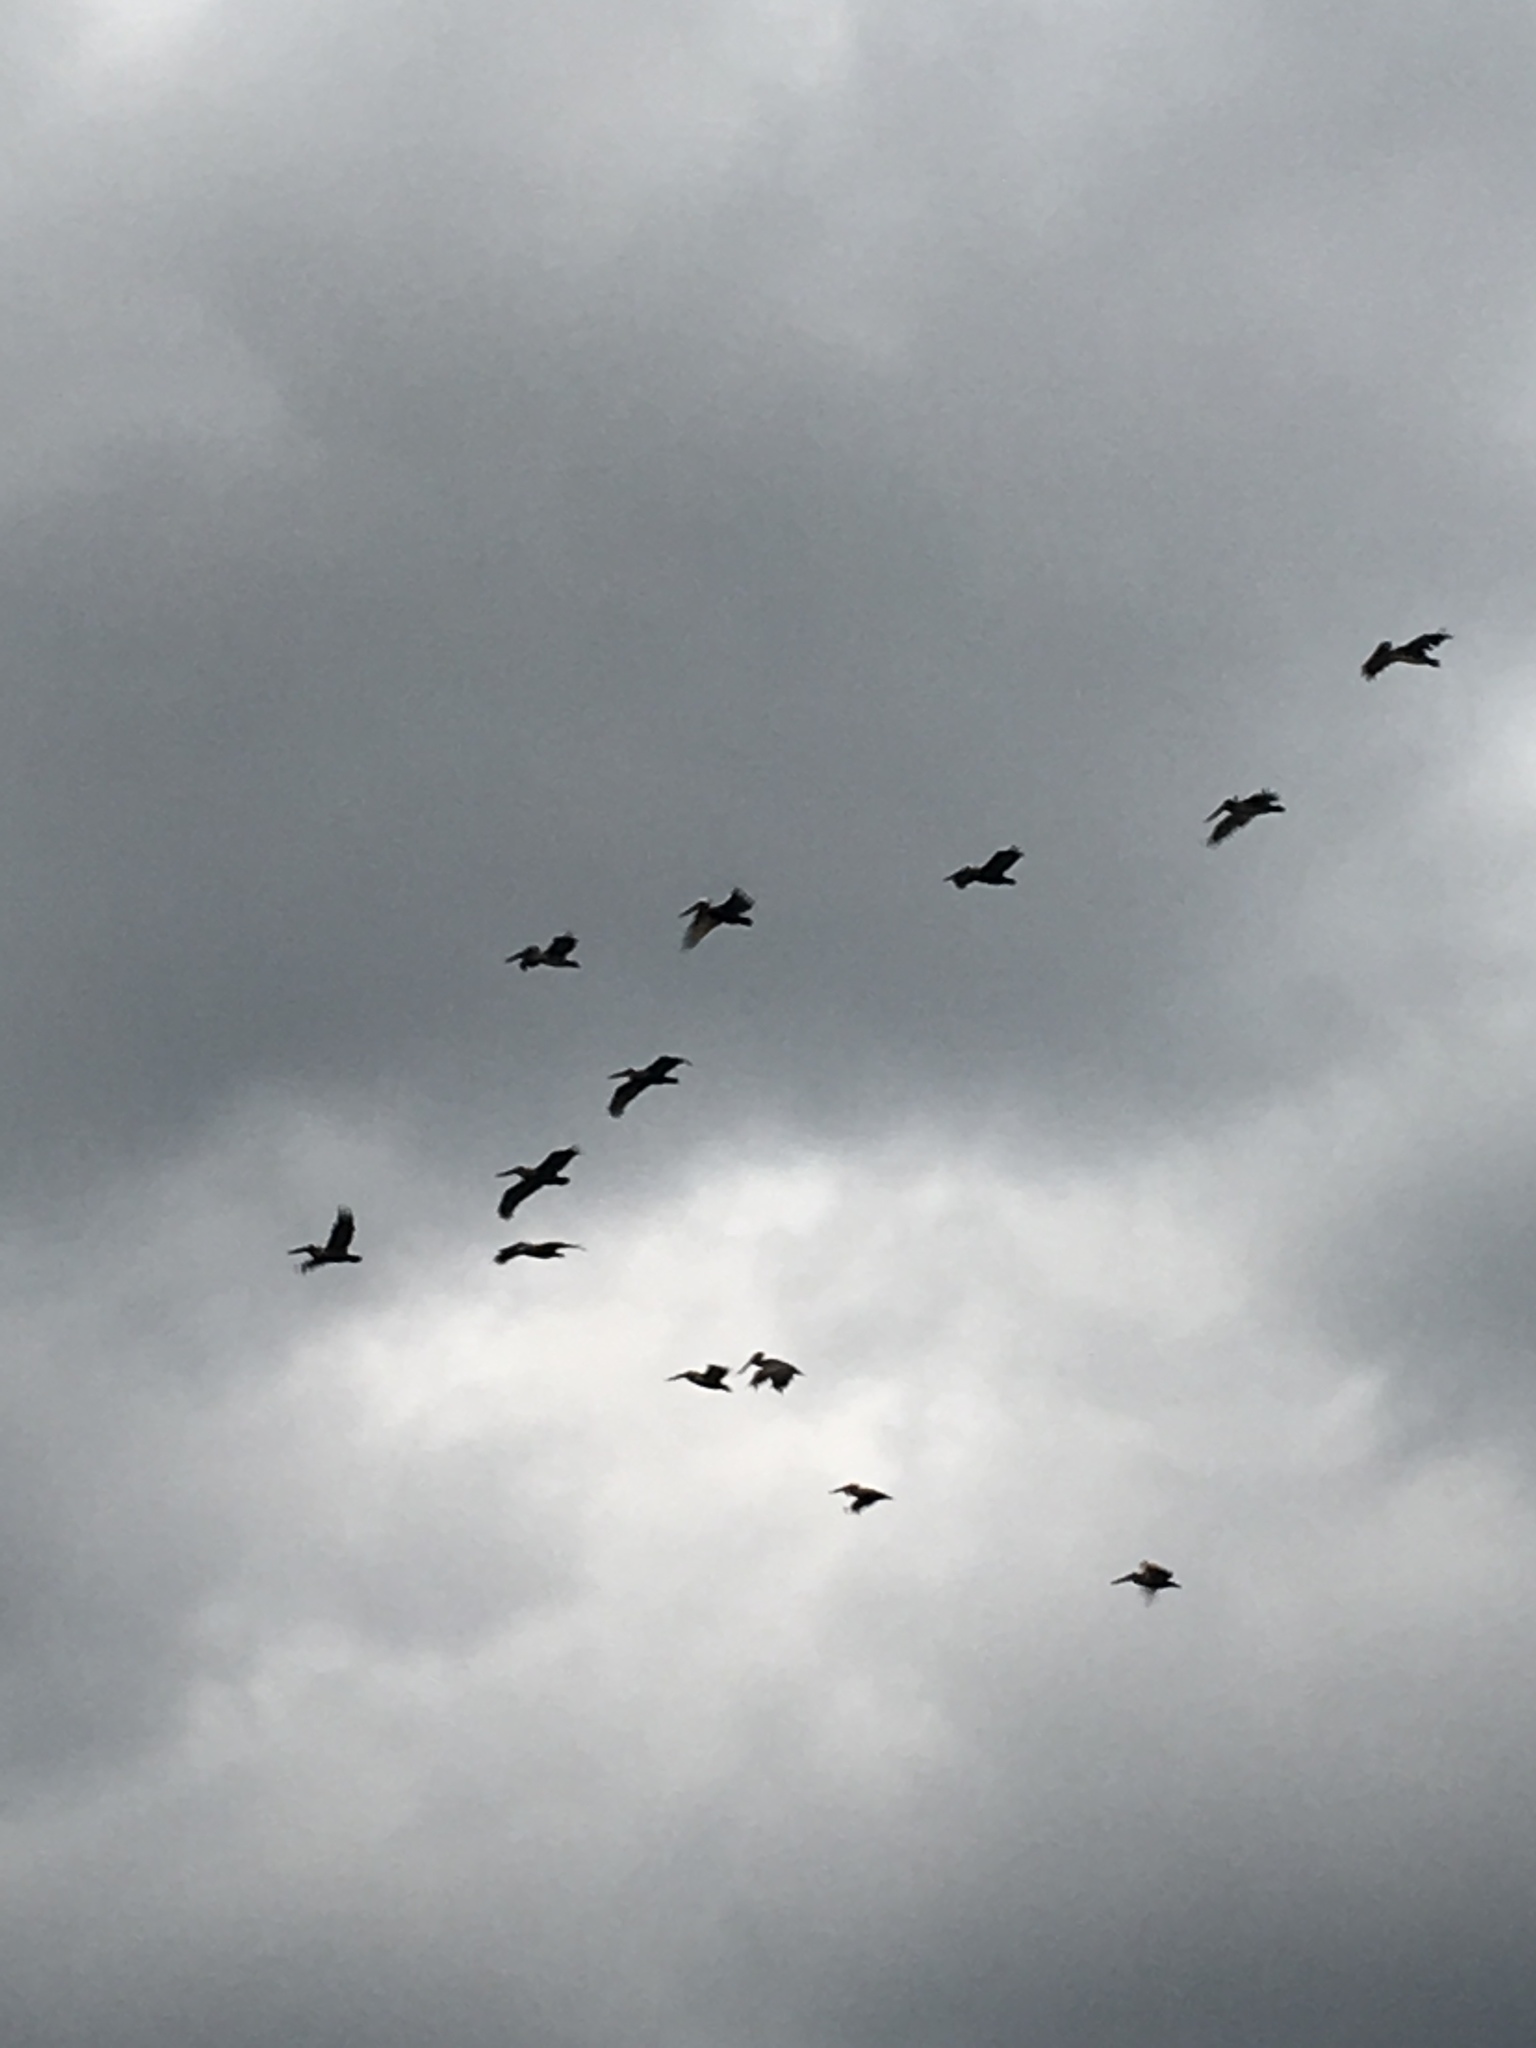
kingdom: Animalia
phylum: Chordata
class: Aves
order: Pelecaniformes
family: Pelecanidae
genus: Pelecanus
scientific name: Pelecanus occidentalis
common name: Brown pelican
